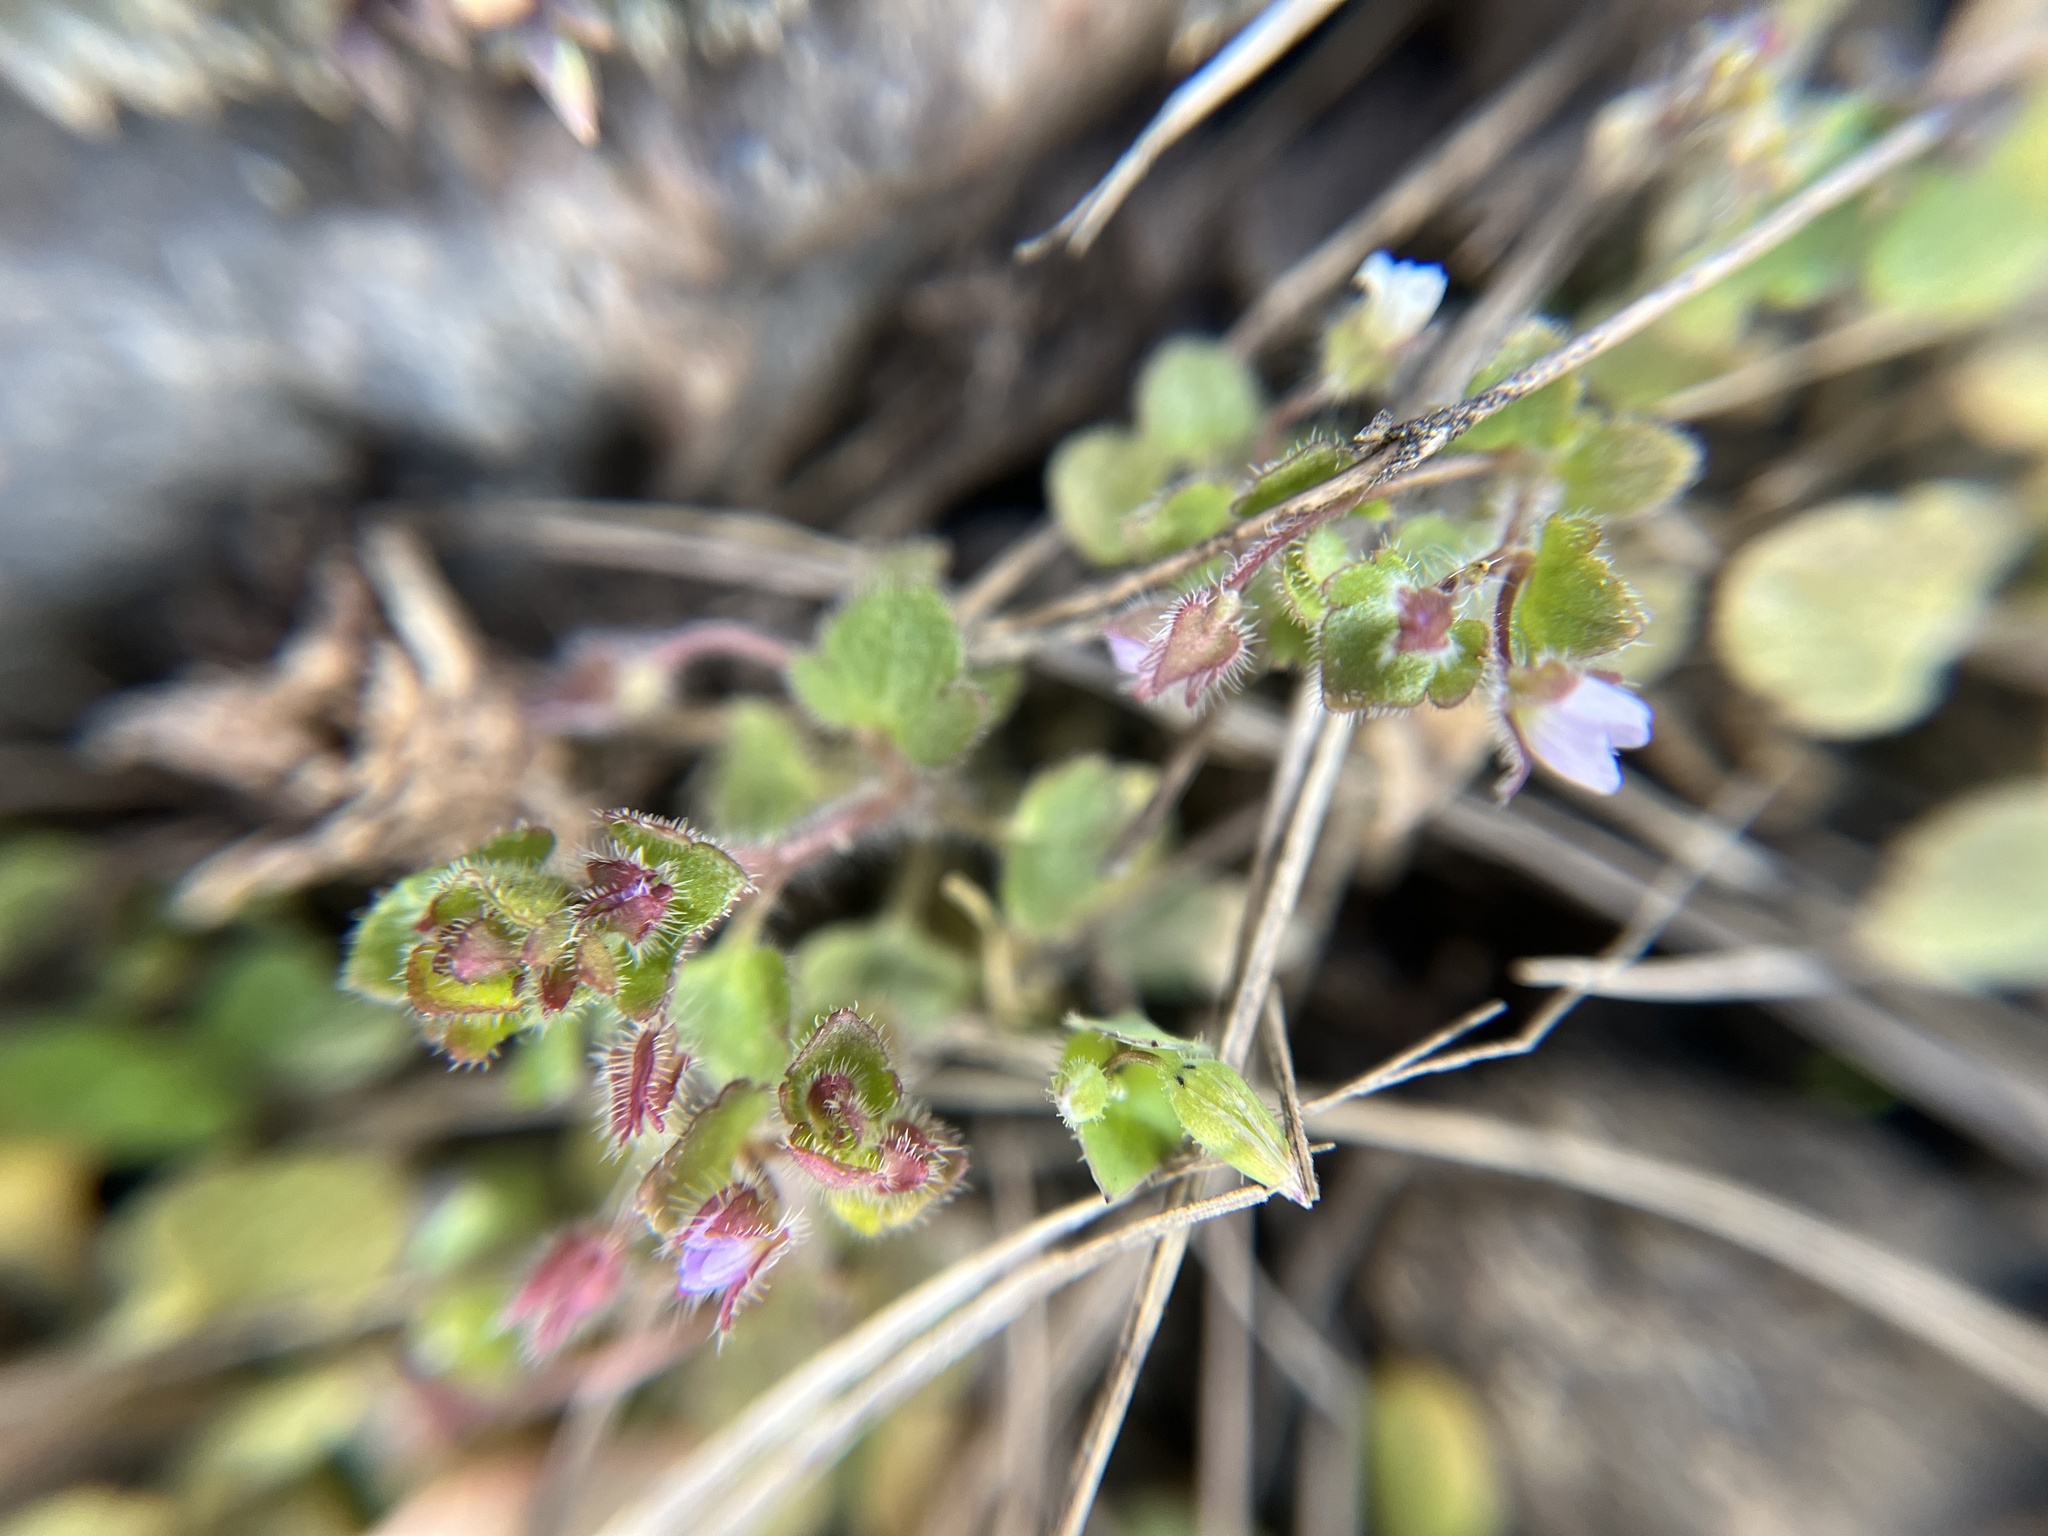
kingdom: Plantae
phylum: Tracheophyta
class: Magnoliopsida
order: Lamiales
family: Plantaginaceae
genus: Veronica
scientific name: Veronica sublobata
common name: False ivy-leaved speedwell
